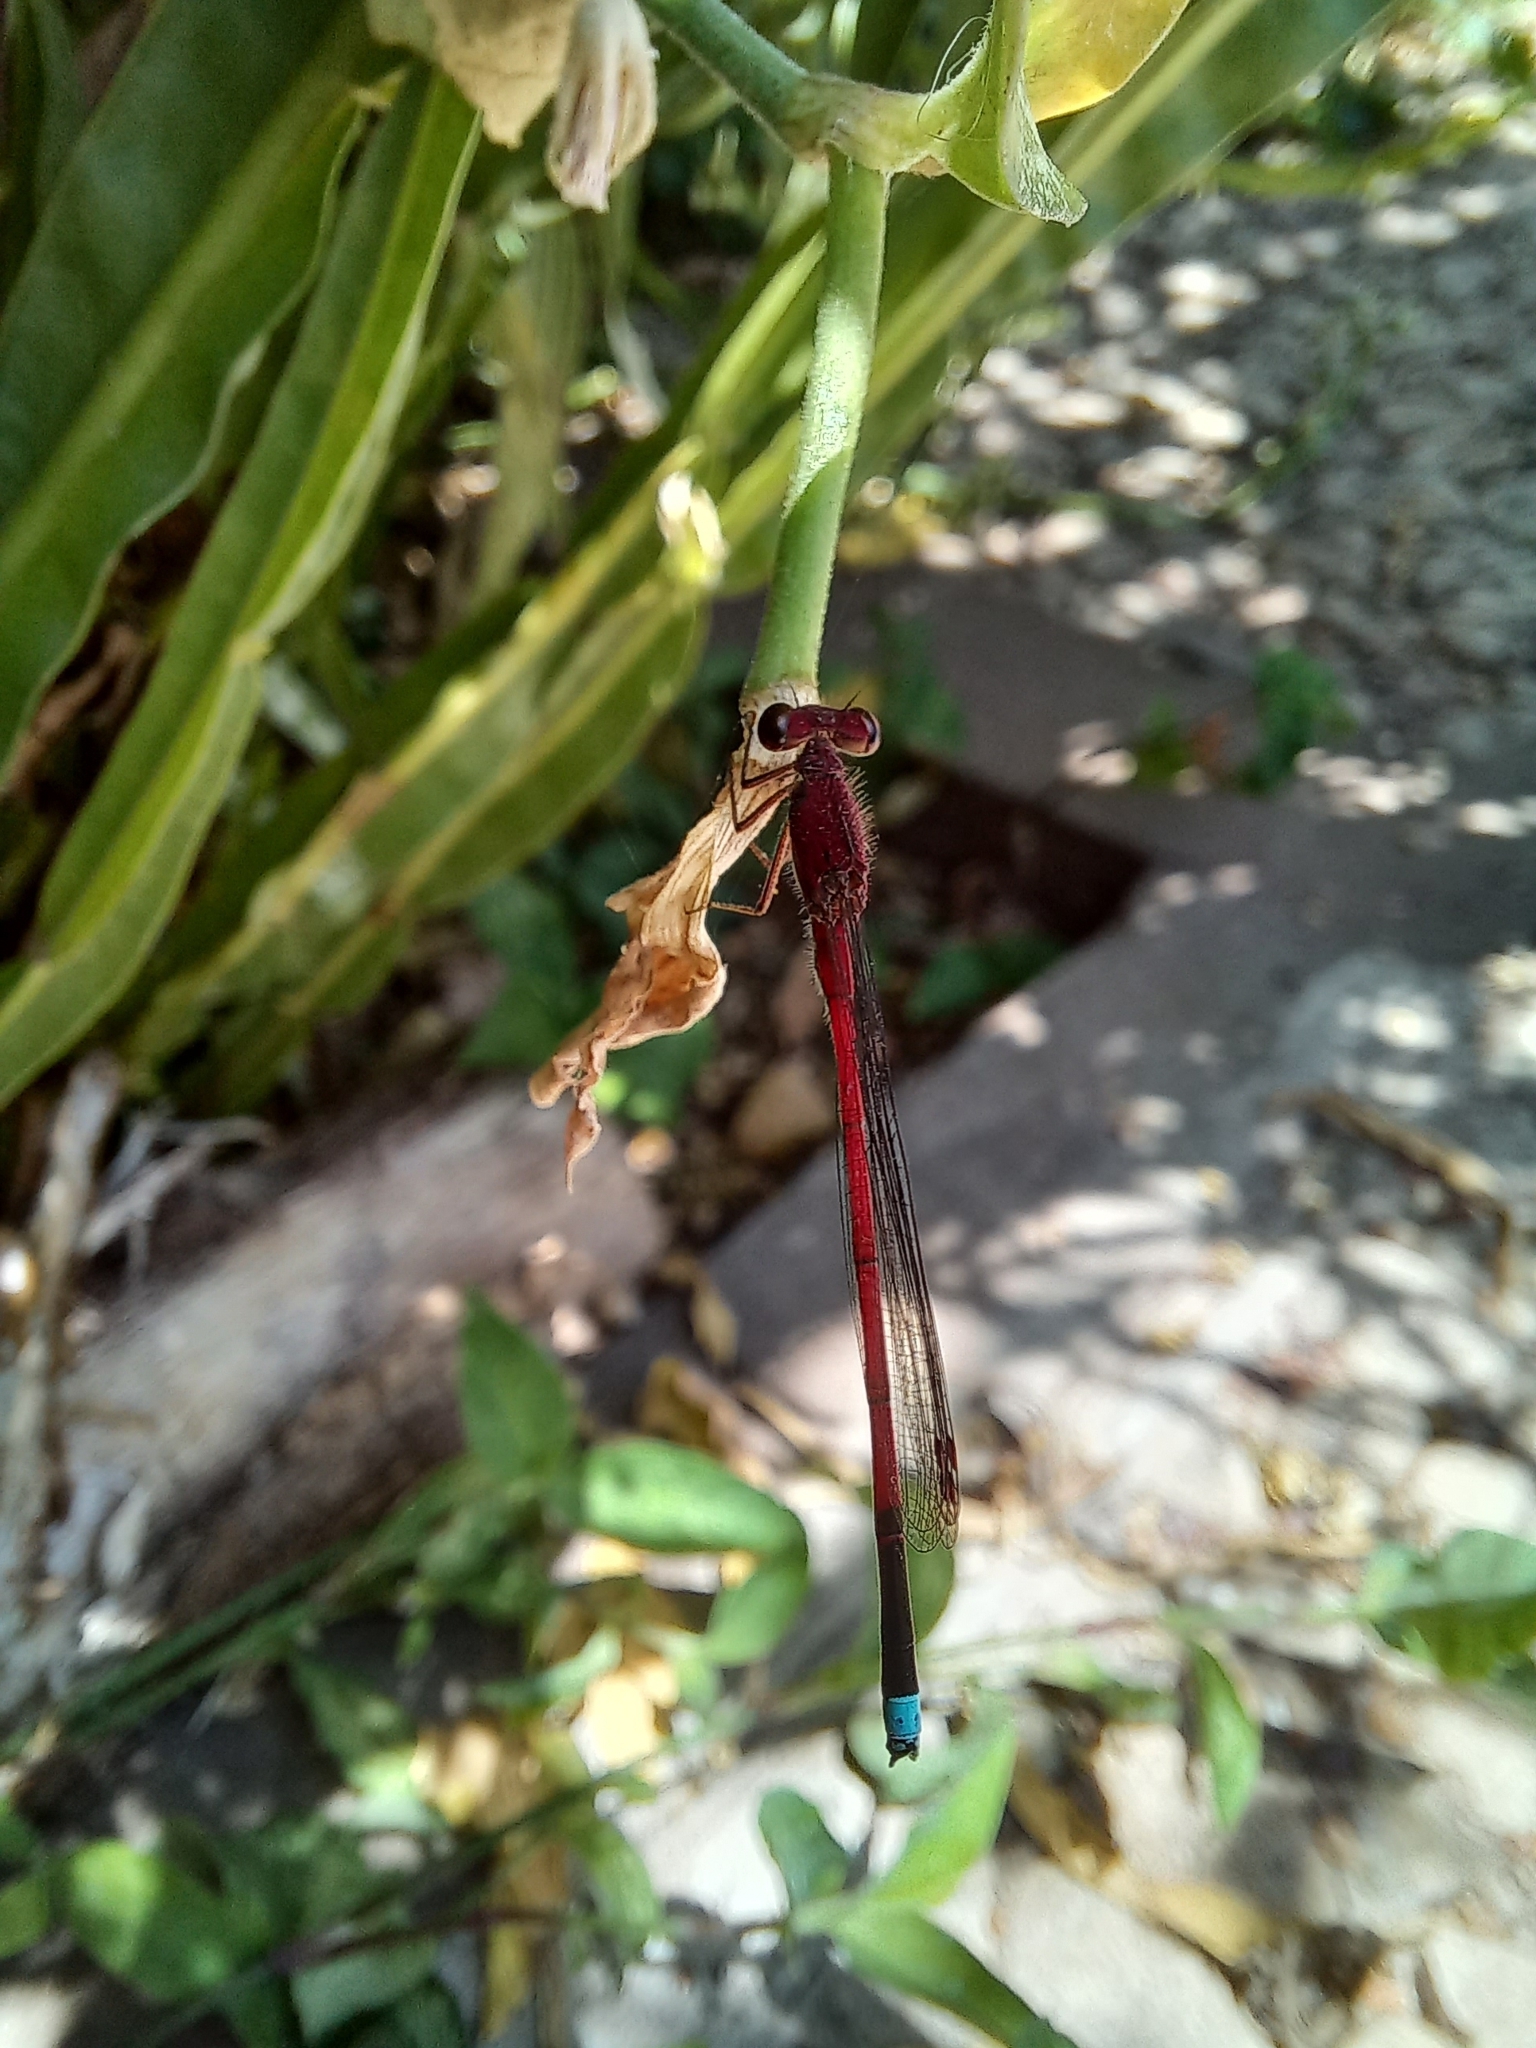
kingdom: Animalia
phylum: Arthropoda
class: Insecta
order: Odonata
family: Coenagrionidae
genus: Oxyagrion
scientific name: Oxyagrion terminale
